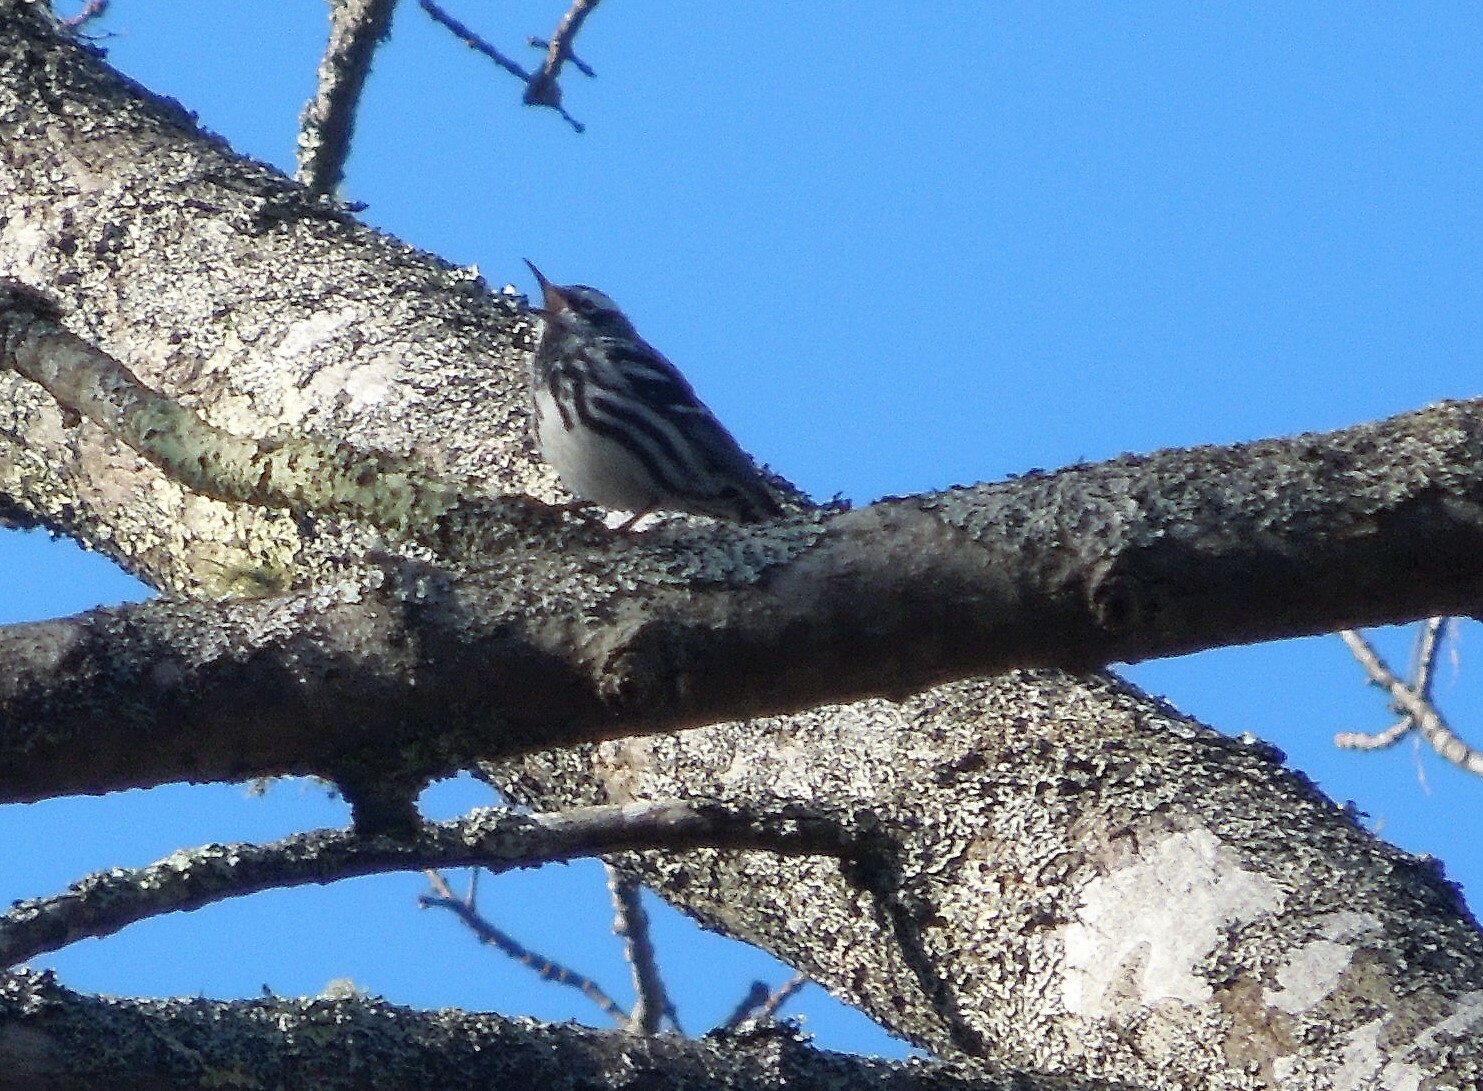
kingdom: Animalia
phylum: Chordata
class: Aves
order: Passeriformes
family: Parulidae
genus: Mniotilta
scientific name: Mniotilta varia
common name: Black-and-white warbler
